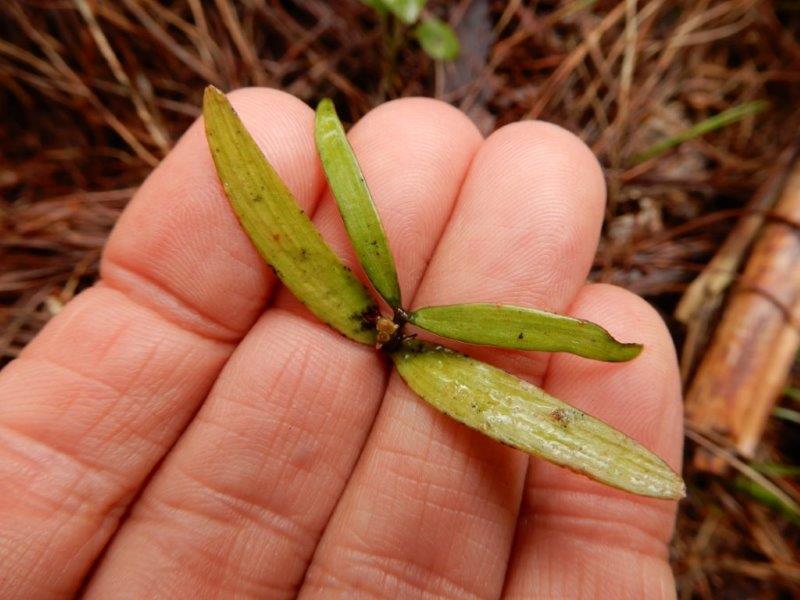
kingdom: Plantae
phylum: Tracheophyta
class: Pinopsida
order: Pinales
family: Araucariaceae
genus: Agathis
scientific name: Agathis australis
